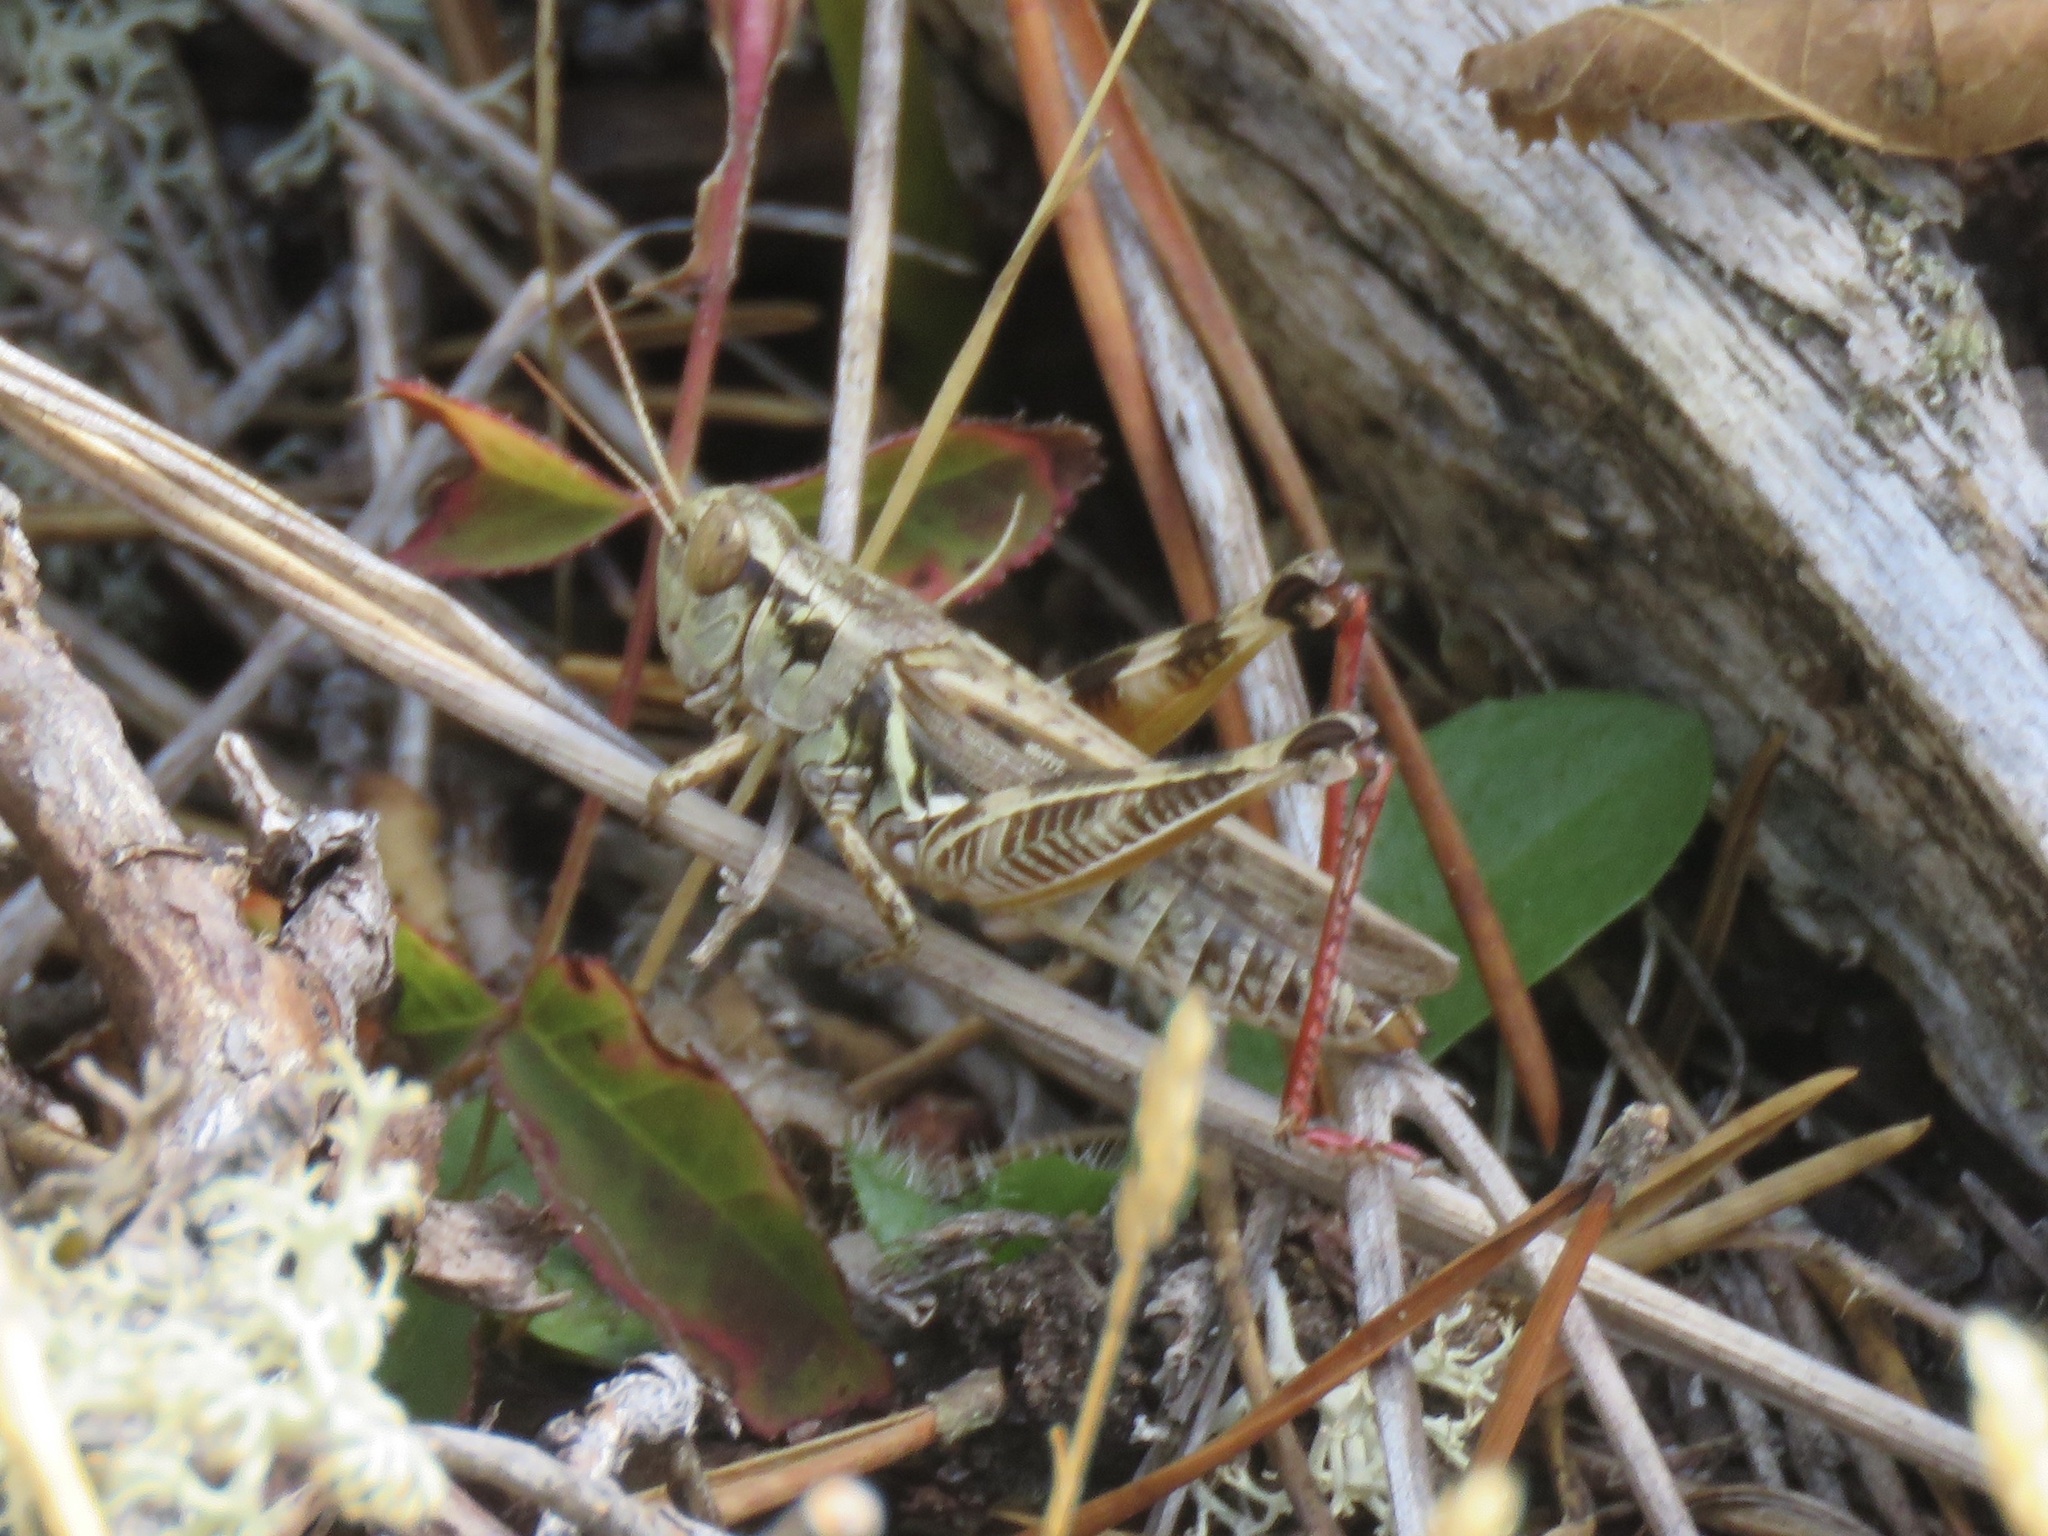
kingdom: Animalia
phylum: Arthropoda
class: Insecta
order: Orthoptera
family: Acrididae
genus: Melanoplus
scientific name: Melanoplus sanguinipes
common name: Migratory grasshopper
